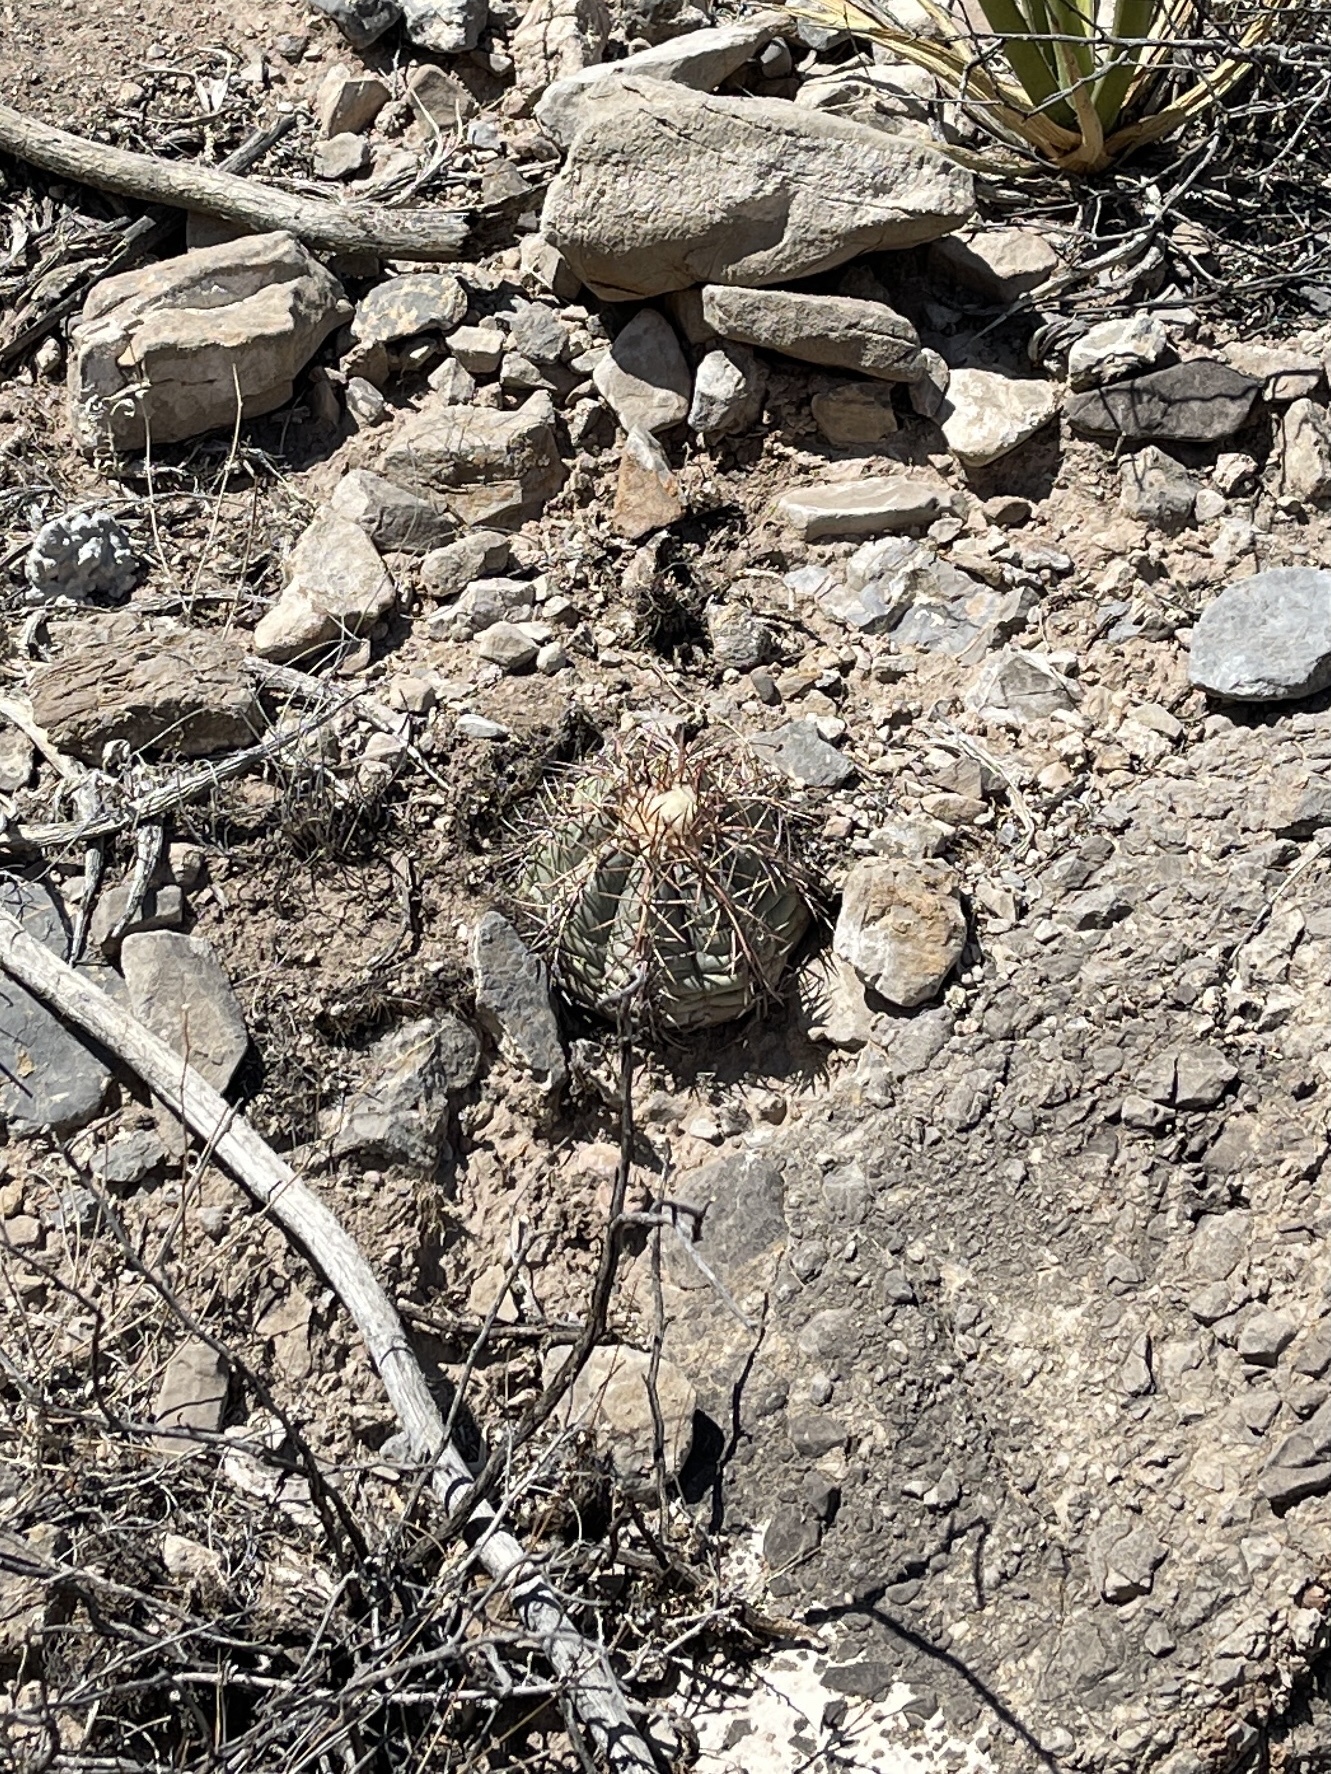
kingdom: Plantae
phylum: Tracheophyta
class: Magnoliopsida
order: Caryophyllales
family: Cactaceae
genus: Echinocactus
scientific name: Echinocactus horizonthalonius
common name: Devilshead
